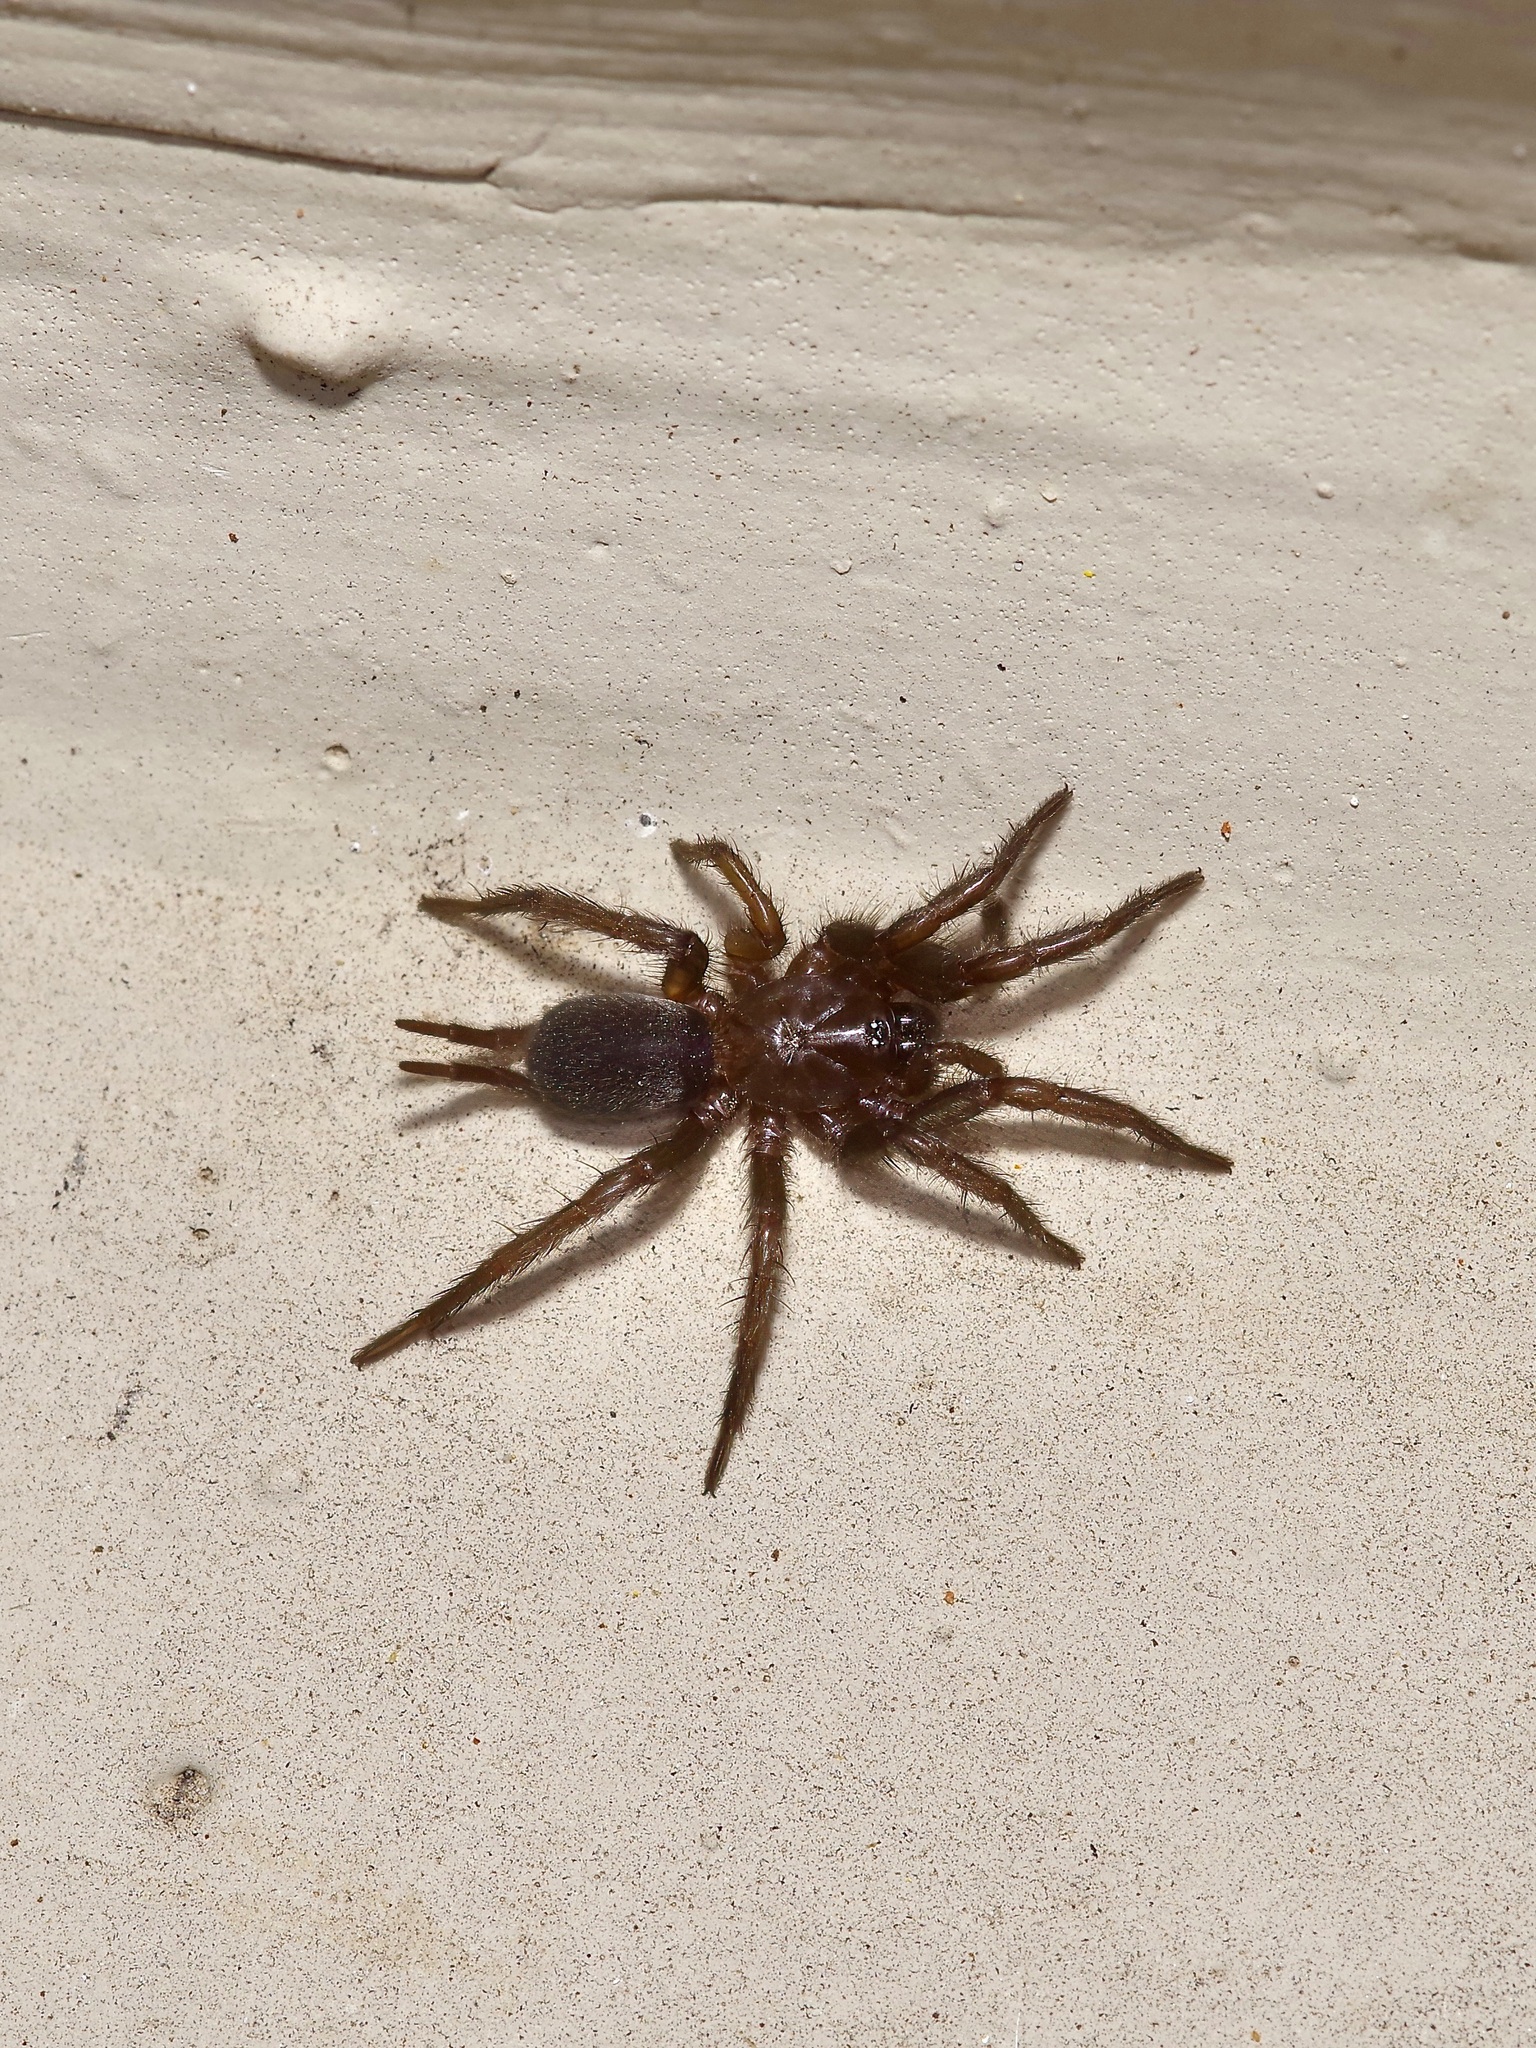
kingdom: Animalia
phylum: Arthropoda
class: Arachnida
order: Araneae
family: Euagridae
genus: Euagrus
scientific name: Euagrus chisoseus
